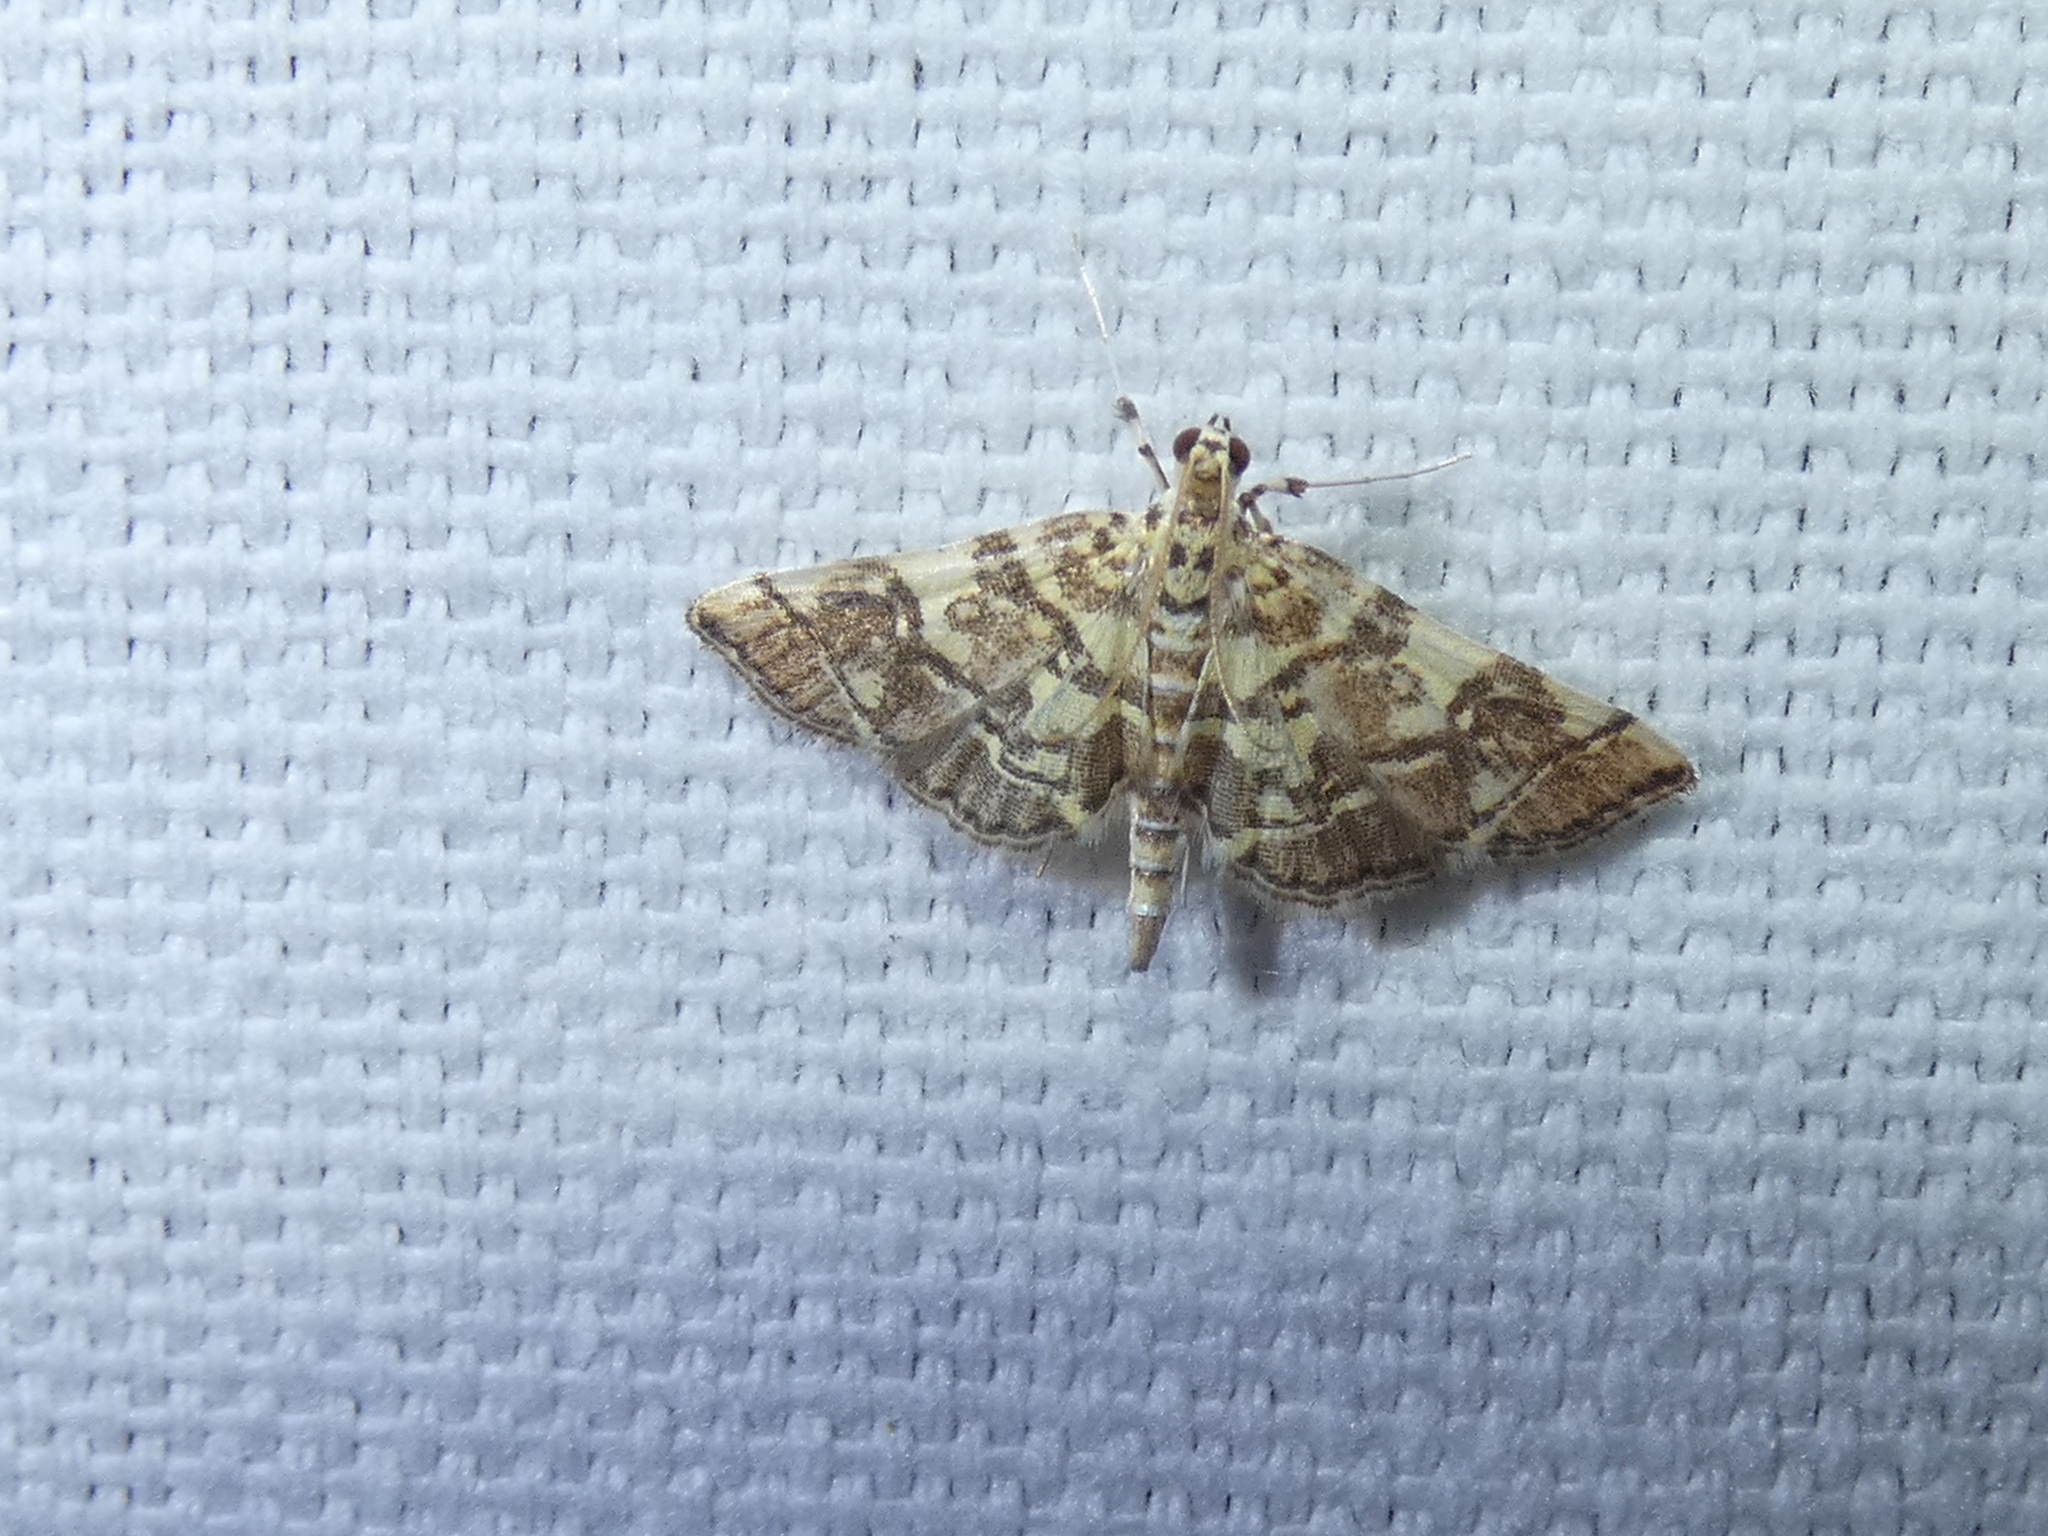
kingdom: Animalia
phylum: Arthropoda
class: Insecta
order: Lepidoptera
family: Crambidae
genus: Apogeshna
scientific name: Apogeshna stenialis
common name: Checkered apogeshna moth
